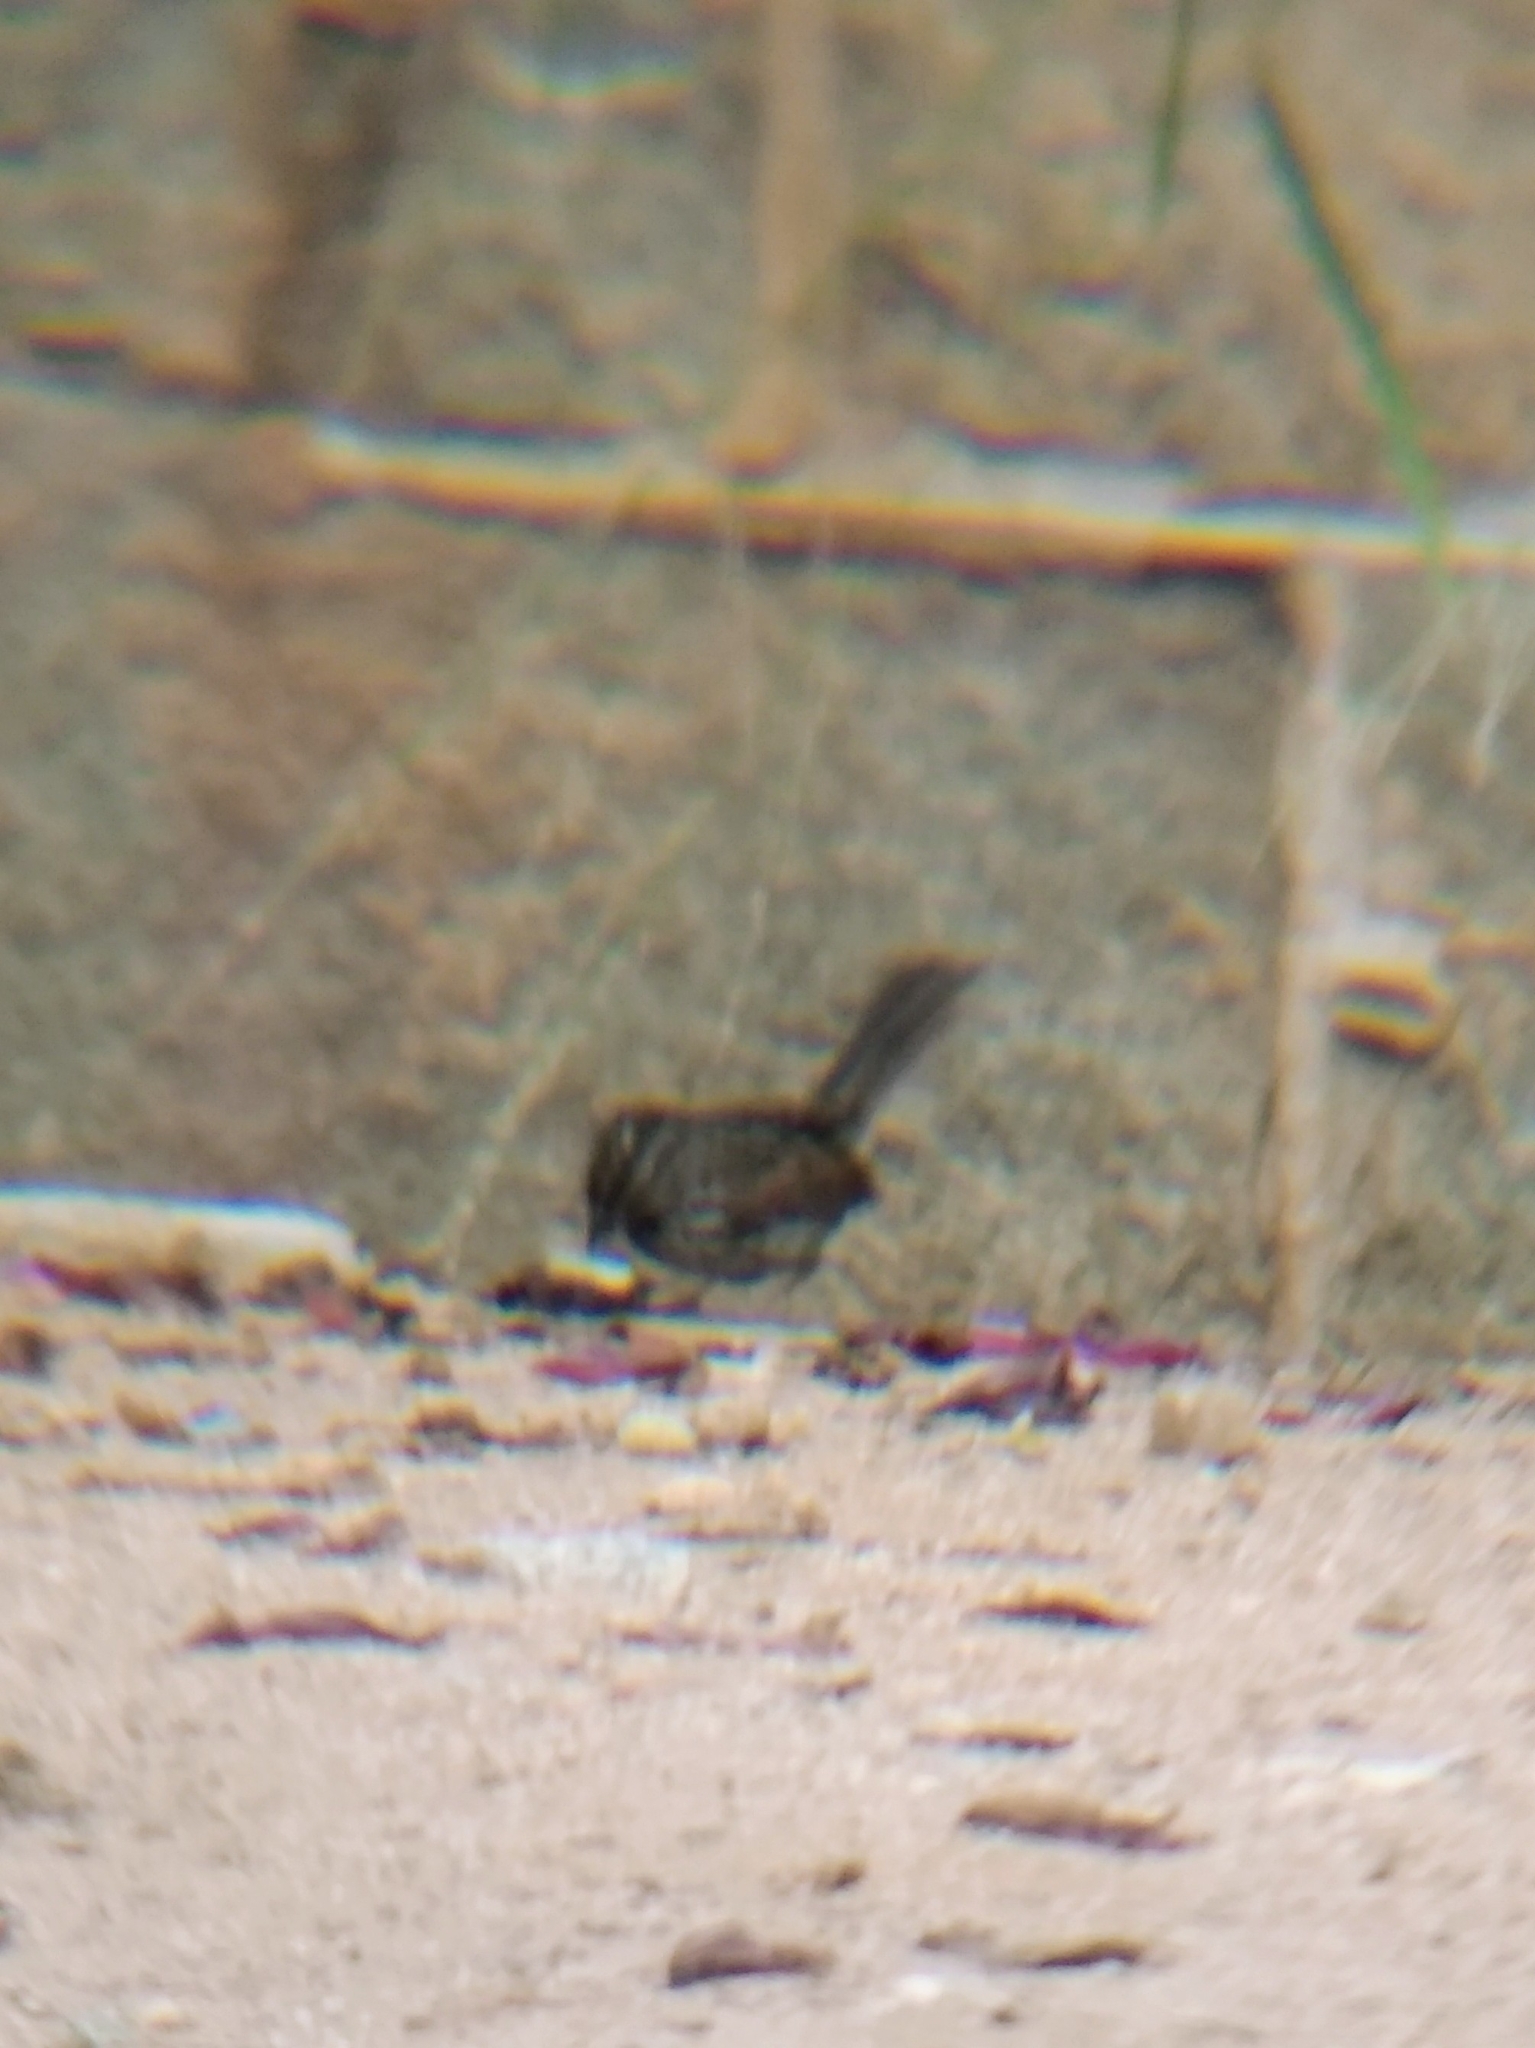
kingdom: Animalia
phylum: Chordata
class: Aves
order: Passeriformes
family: Passerellidae
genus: Melospiza
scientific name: Melospiza melodia
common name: Song sparrow
